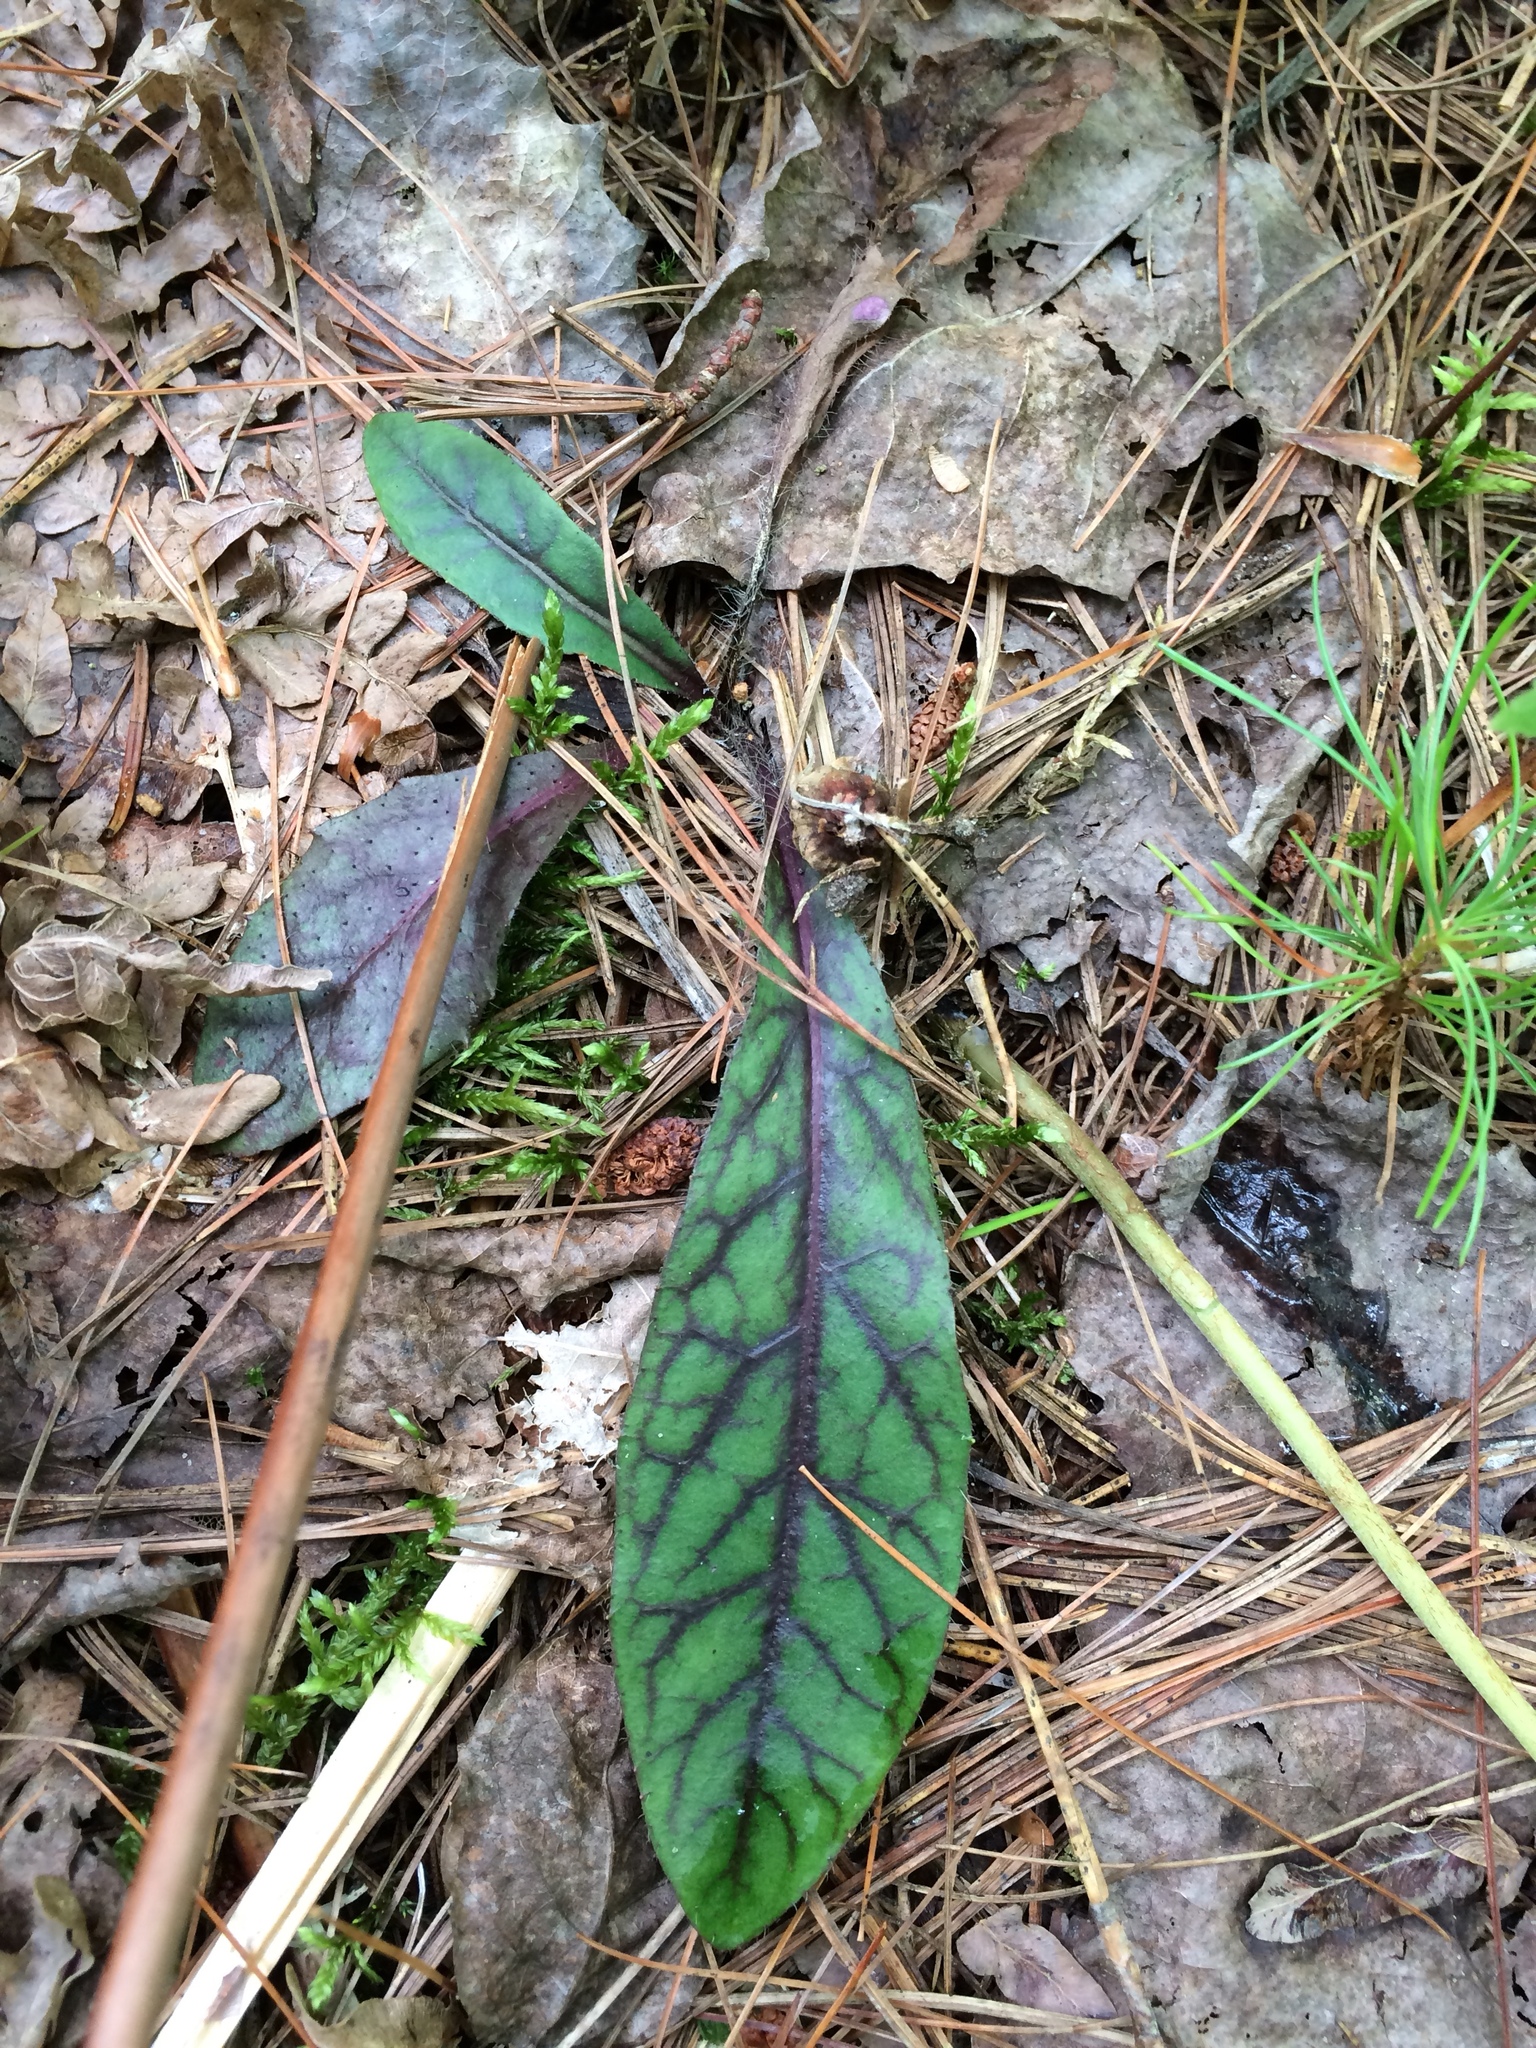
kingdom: Plantae
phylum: Tracheophyta
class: Magnoliopsida
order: Asterales
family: Asteraceae
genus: Hieracium
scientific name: Hieracium venosum
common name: Rattlesnake hawkweed
